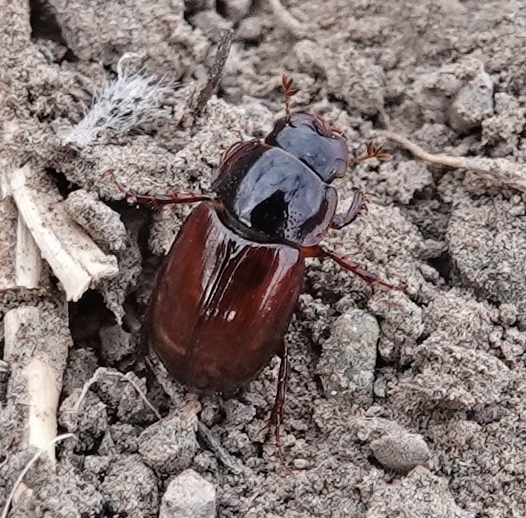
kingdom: Animalia
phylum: Arthropoda
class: Insecta
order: Coleoptera
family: Scarabaeidae
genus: Cryptoscatomaseter
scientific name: Cryptoscatomaseter magnificens
